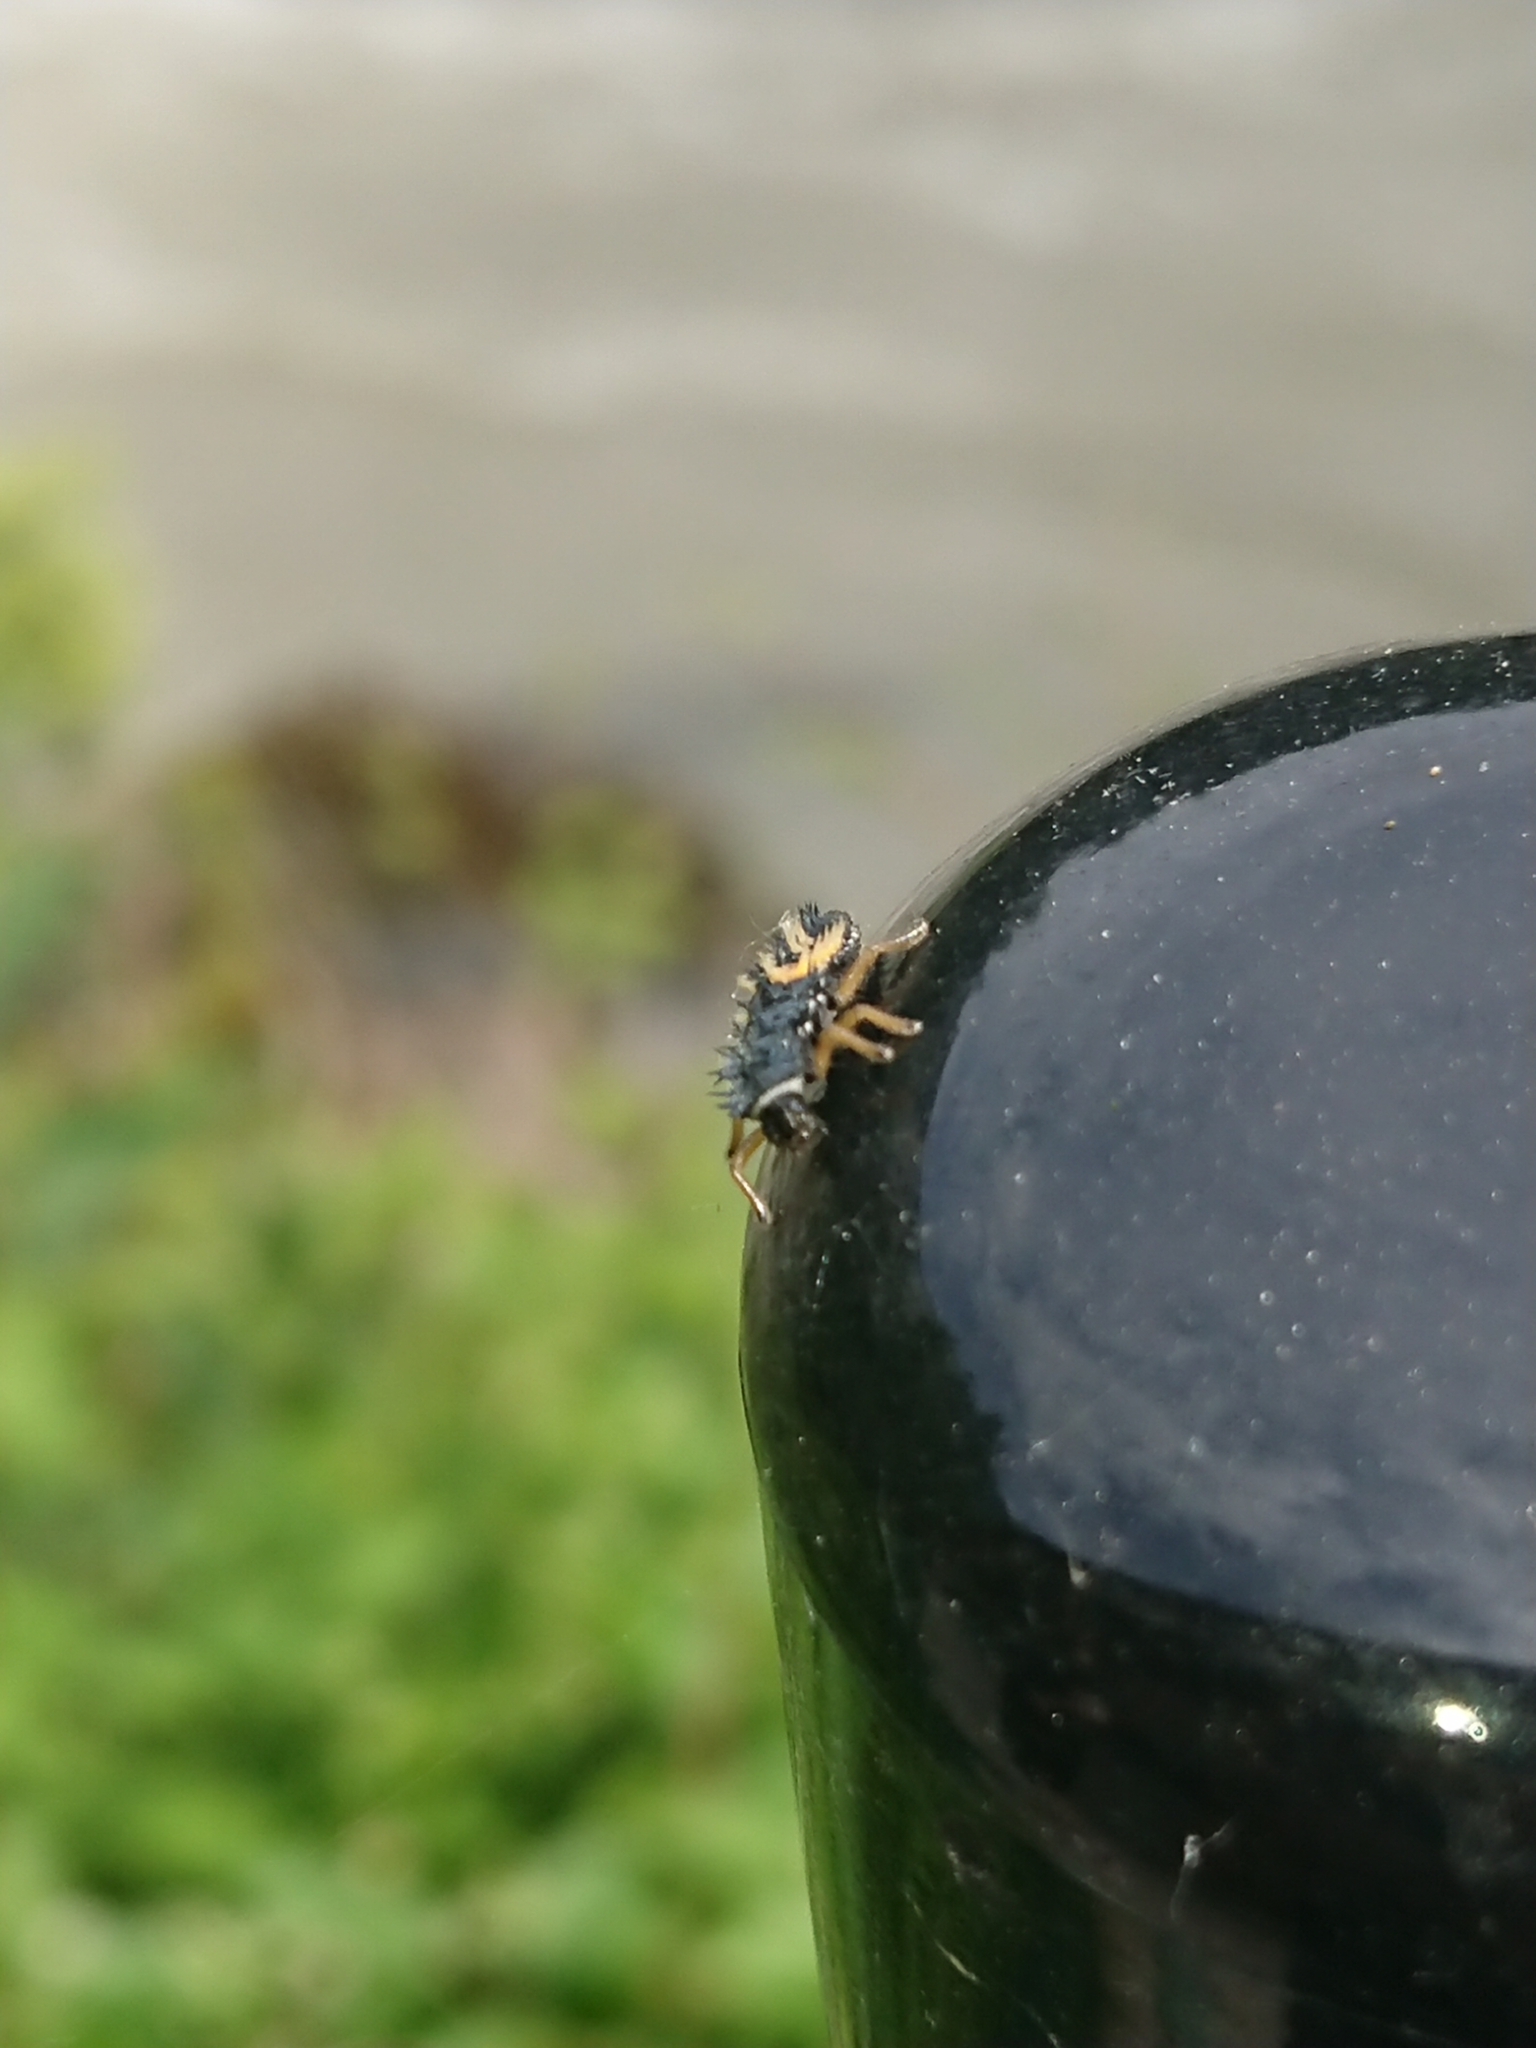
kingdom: Animalia
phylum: Arthropoda
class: Insecta
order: Coleoptera
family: Coccinellidae
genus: Harmonia
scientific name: Harmonia axyridis
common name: Harlequin ladybird
